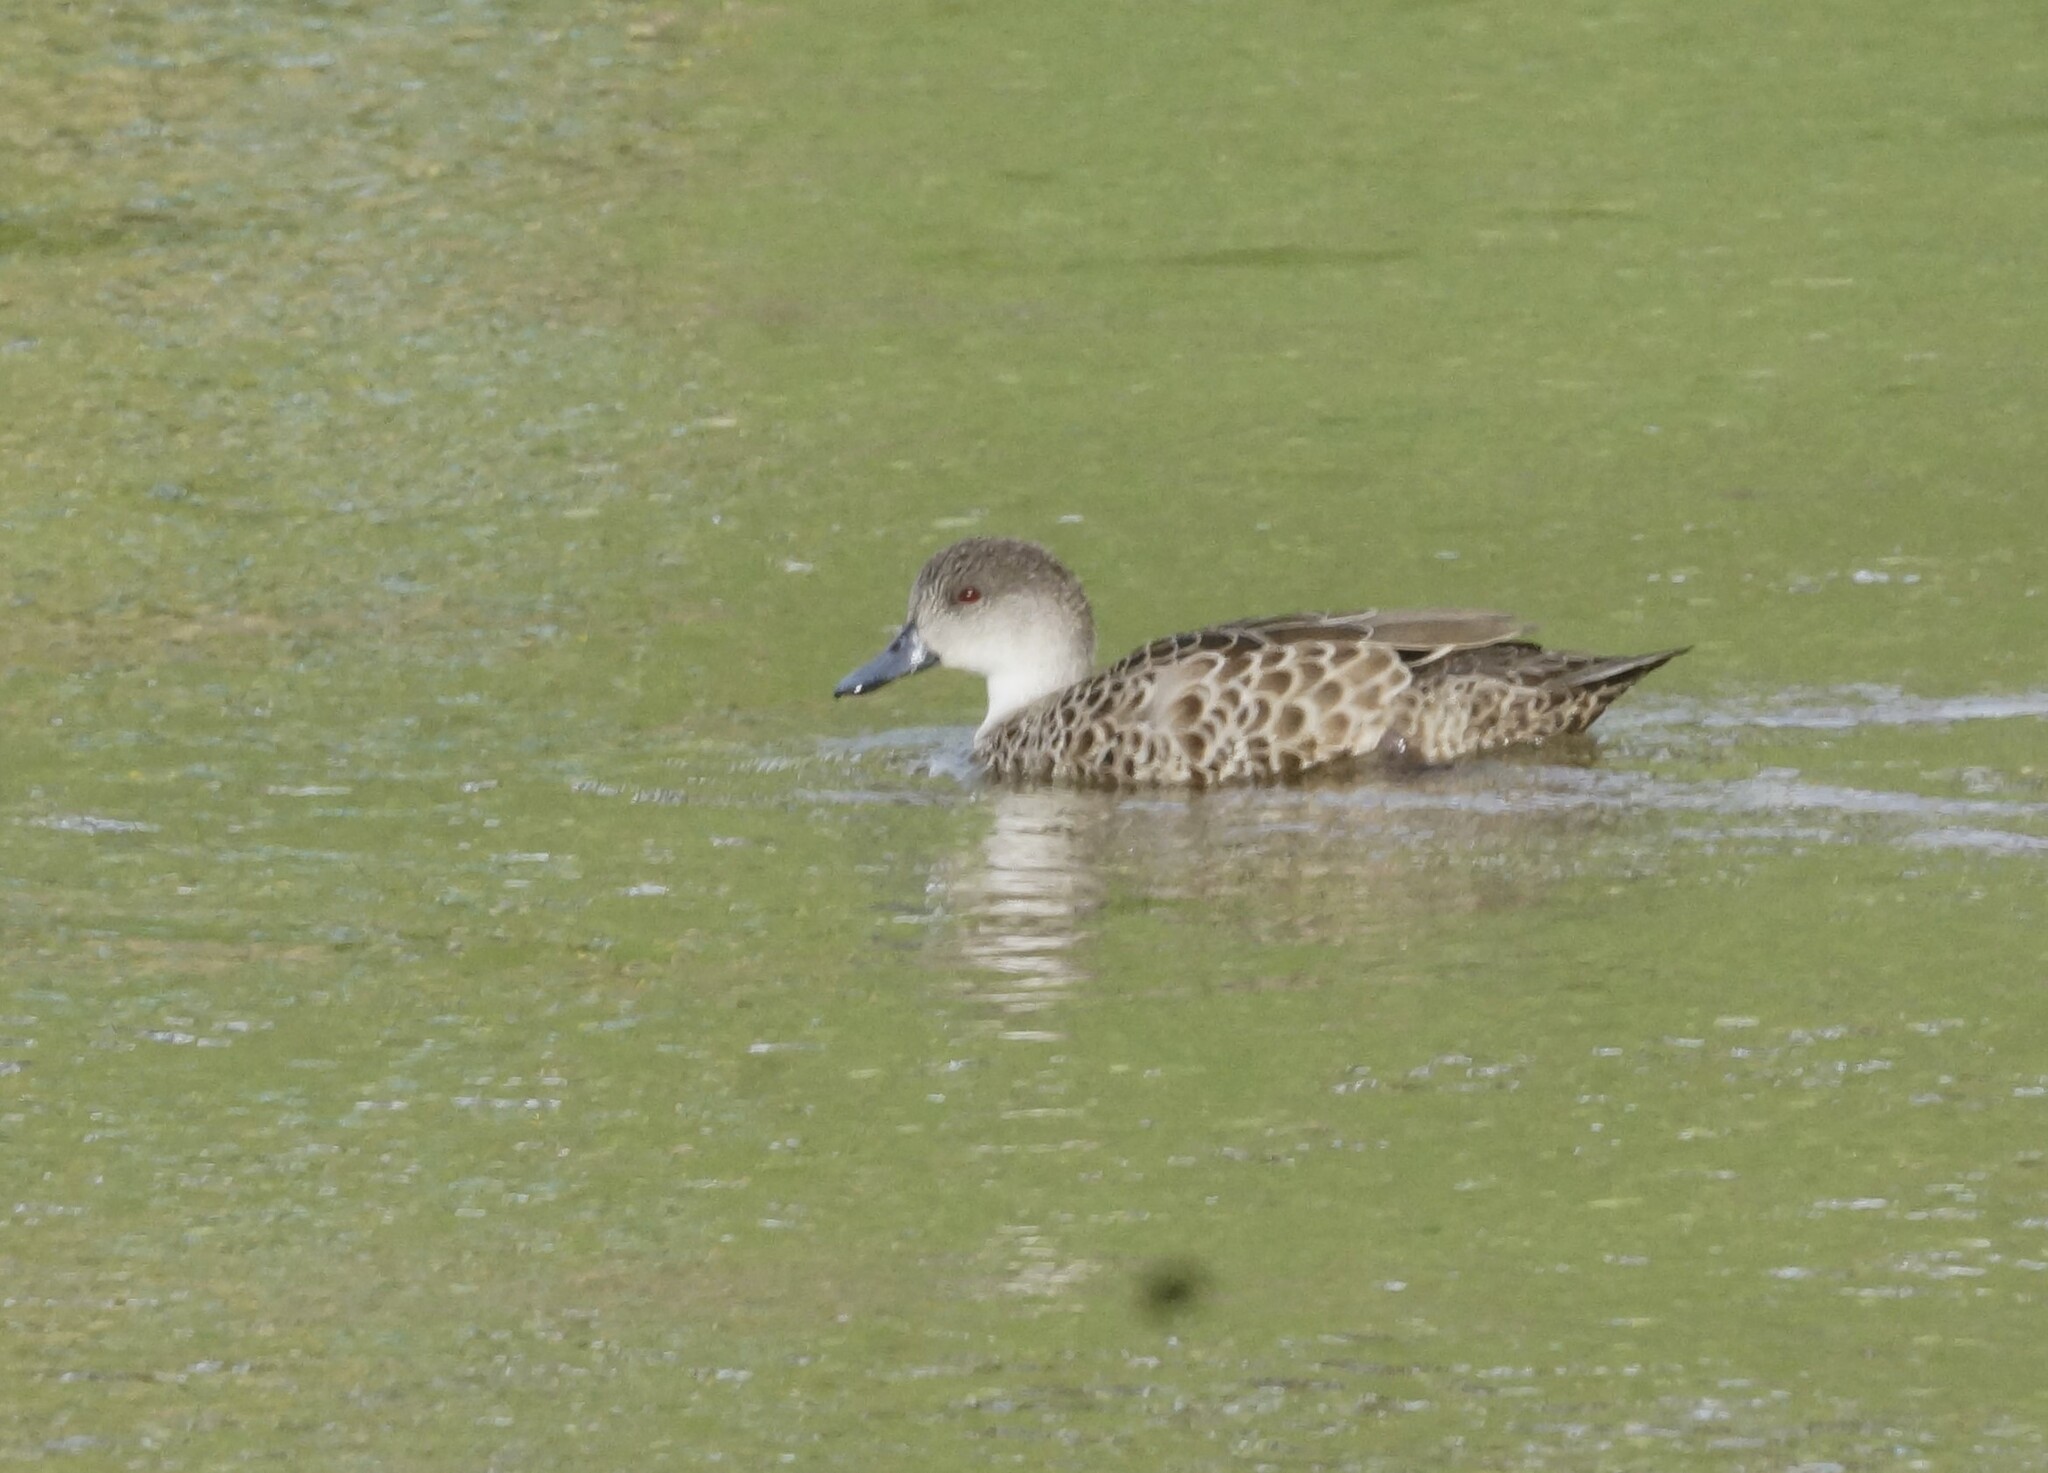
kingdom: Animalia
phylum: Chordata
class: Aves
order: Anseriformes
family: Anatidae
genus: Anas
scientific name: Anas gracilis
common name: Grey teal
